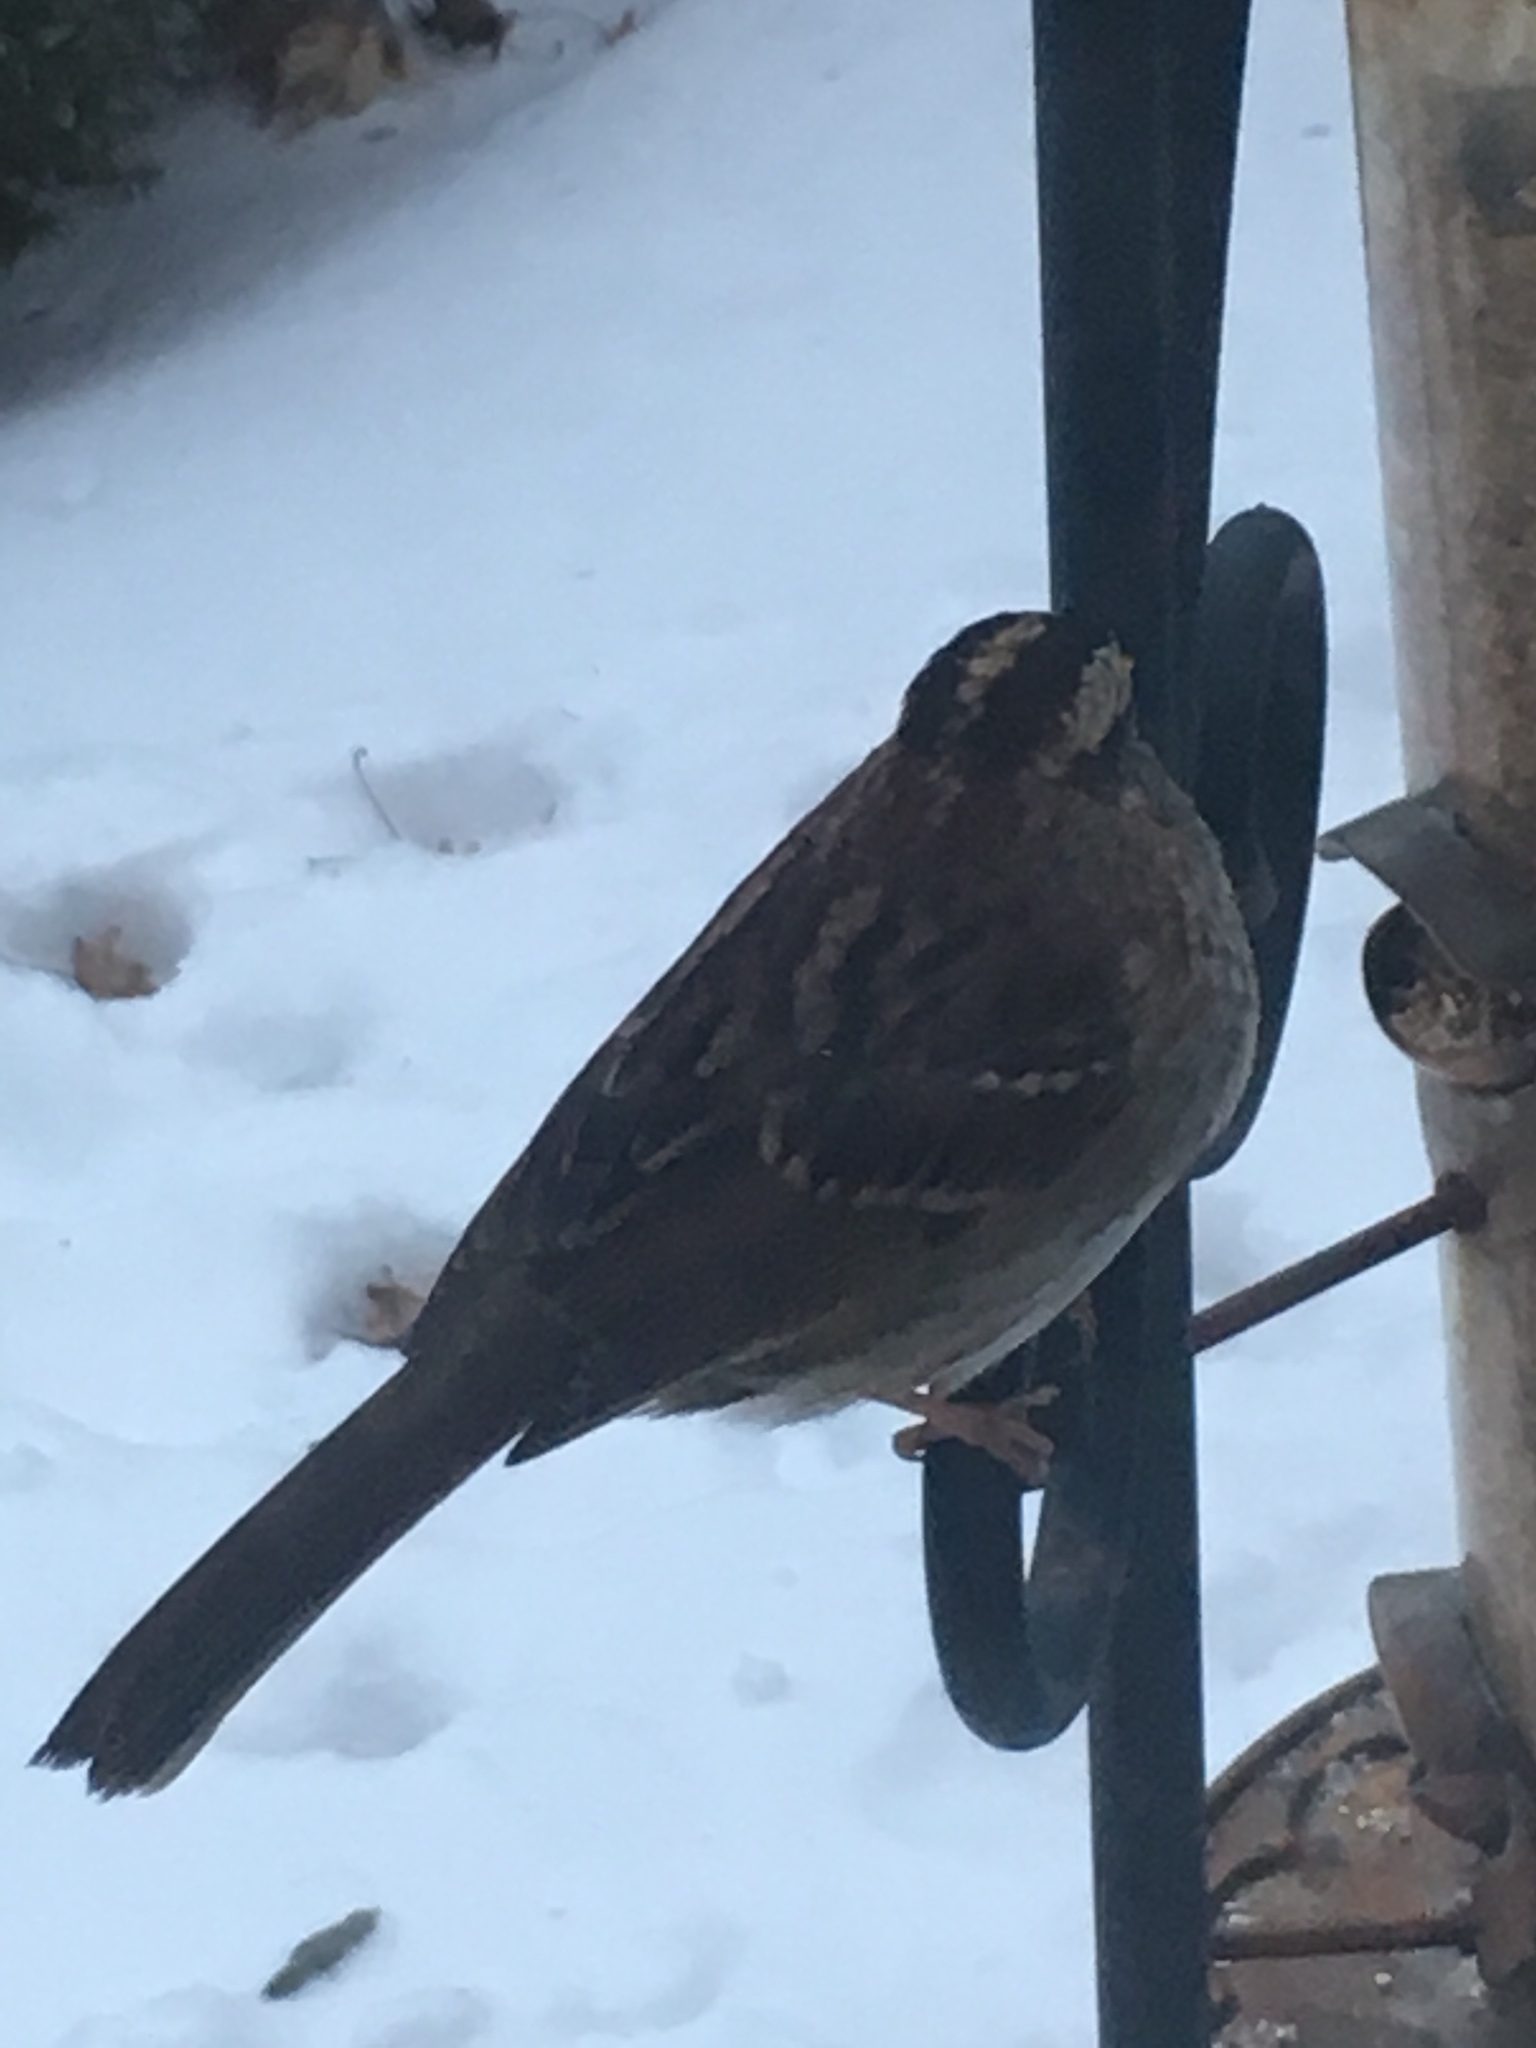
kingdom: Animalia
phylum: Chordata
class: Aves
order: Passeriformes
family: Passerellidae
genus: Zonotrichia
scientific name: Zonotrichia albicollis
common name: White-throated sparrow
